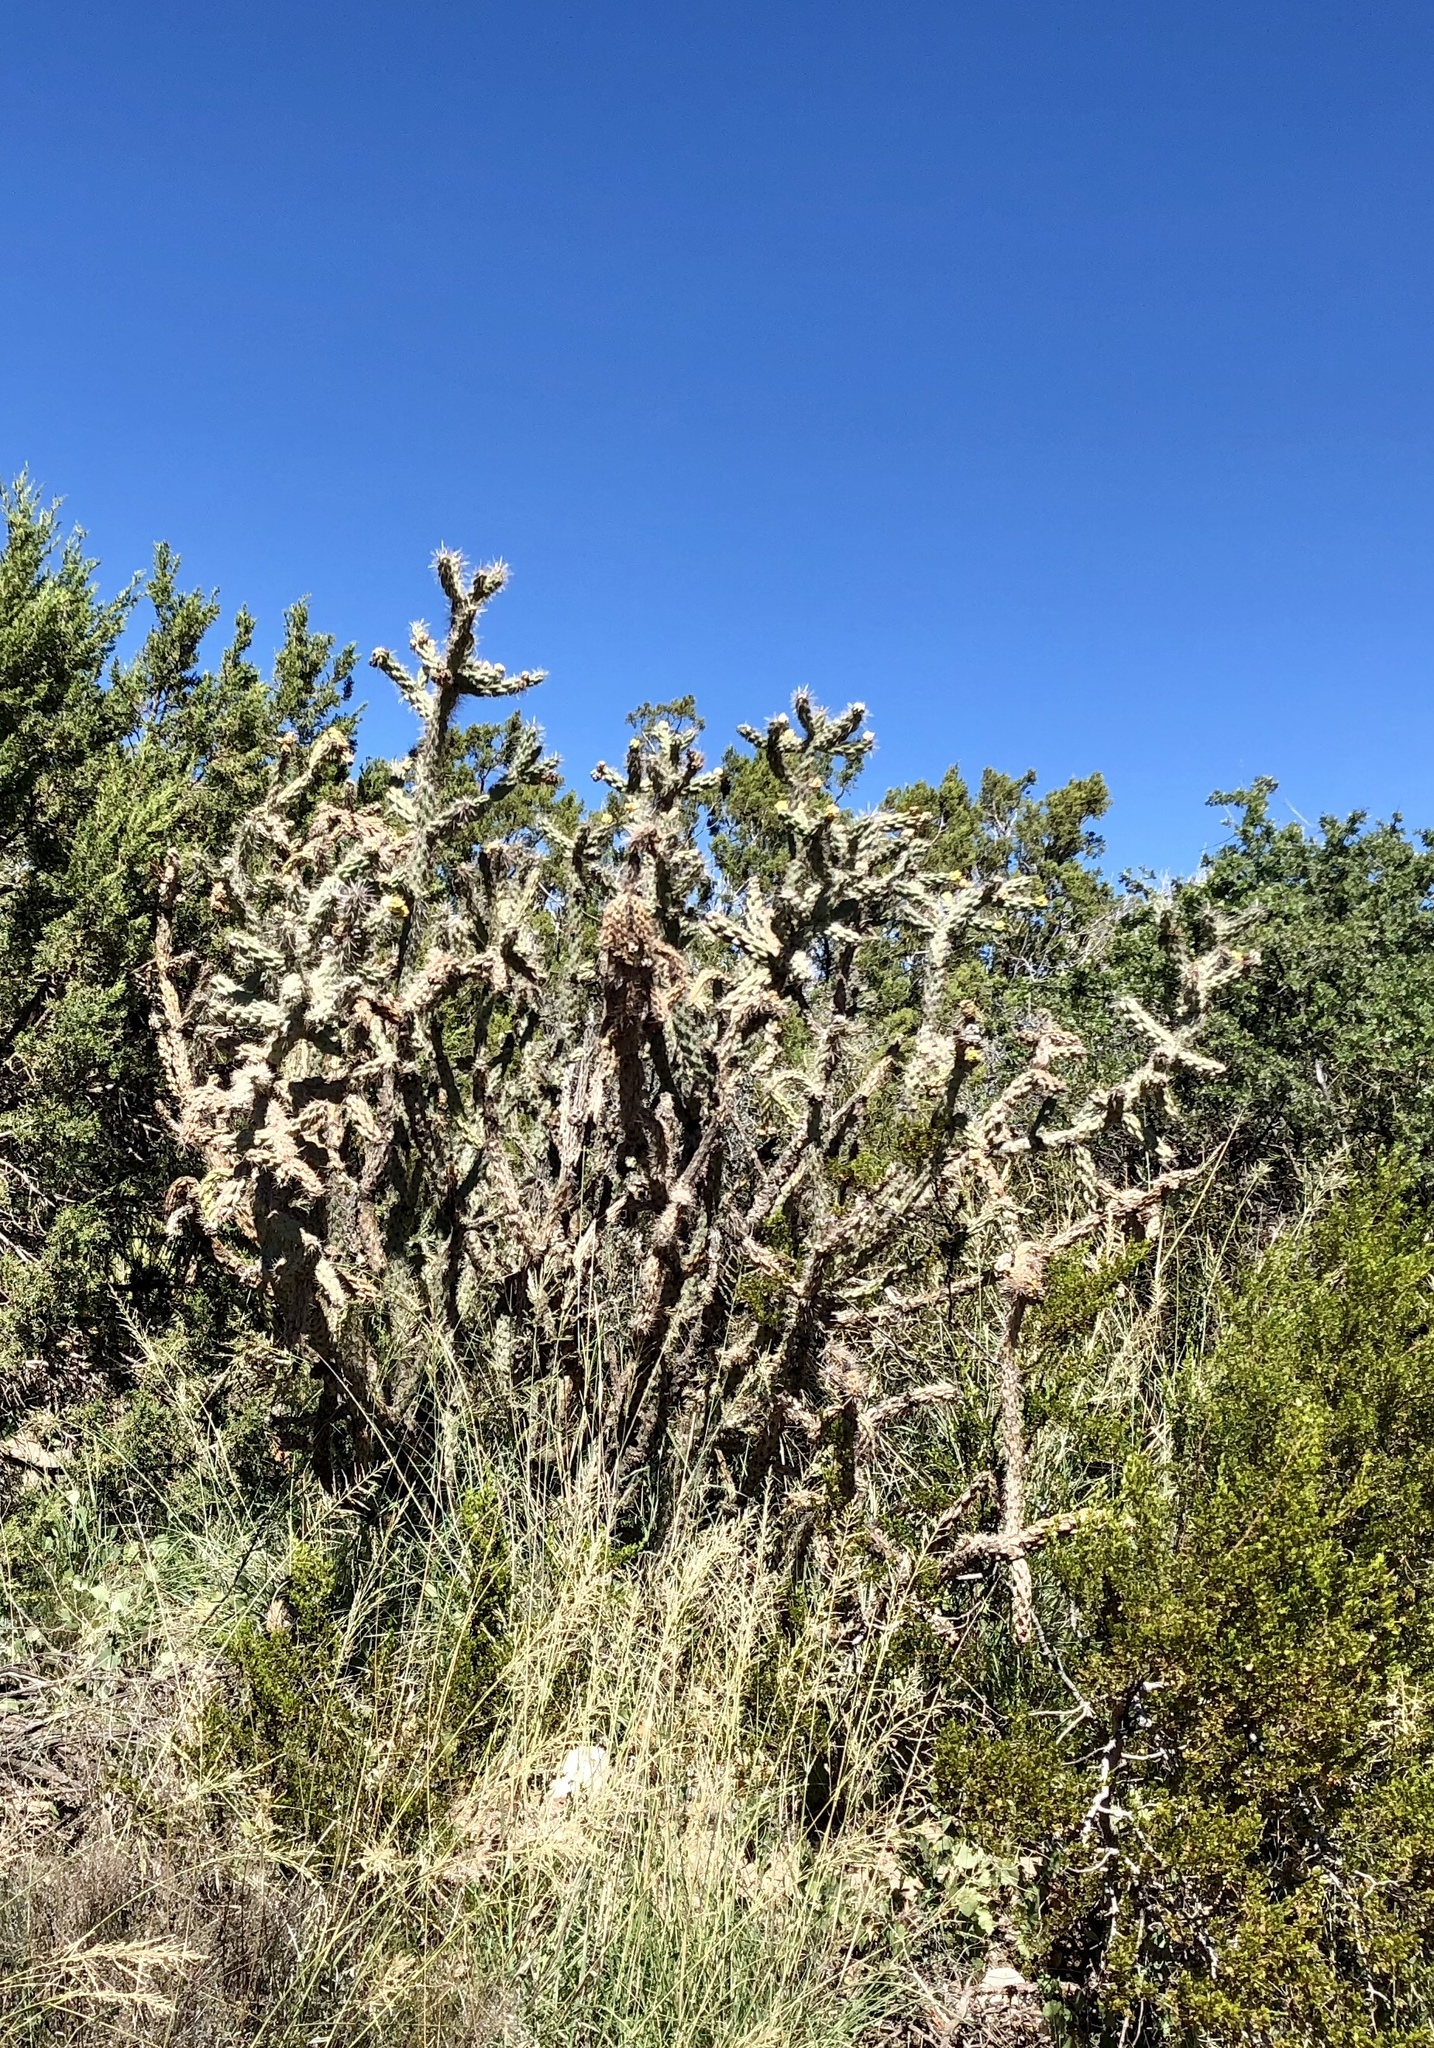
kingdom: Plantae
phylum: Tracheophyta
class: Magnoliopsida
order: Caryophyllales
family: Cactaceae
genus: Cylindropuntia
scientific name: Cylindropuntia imbricata
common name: Candelabrum cactus
